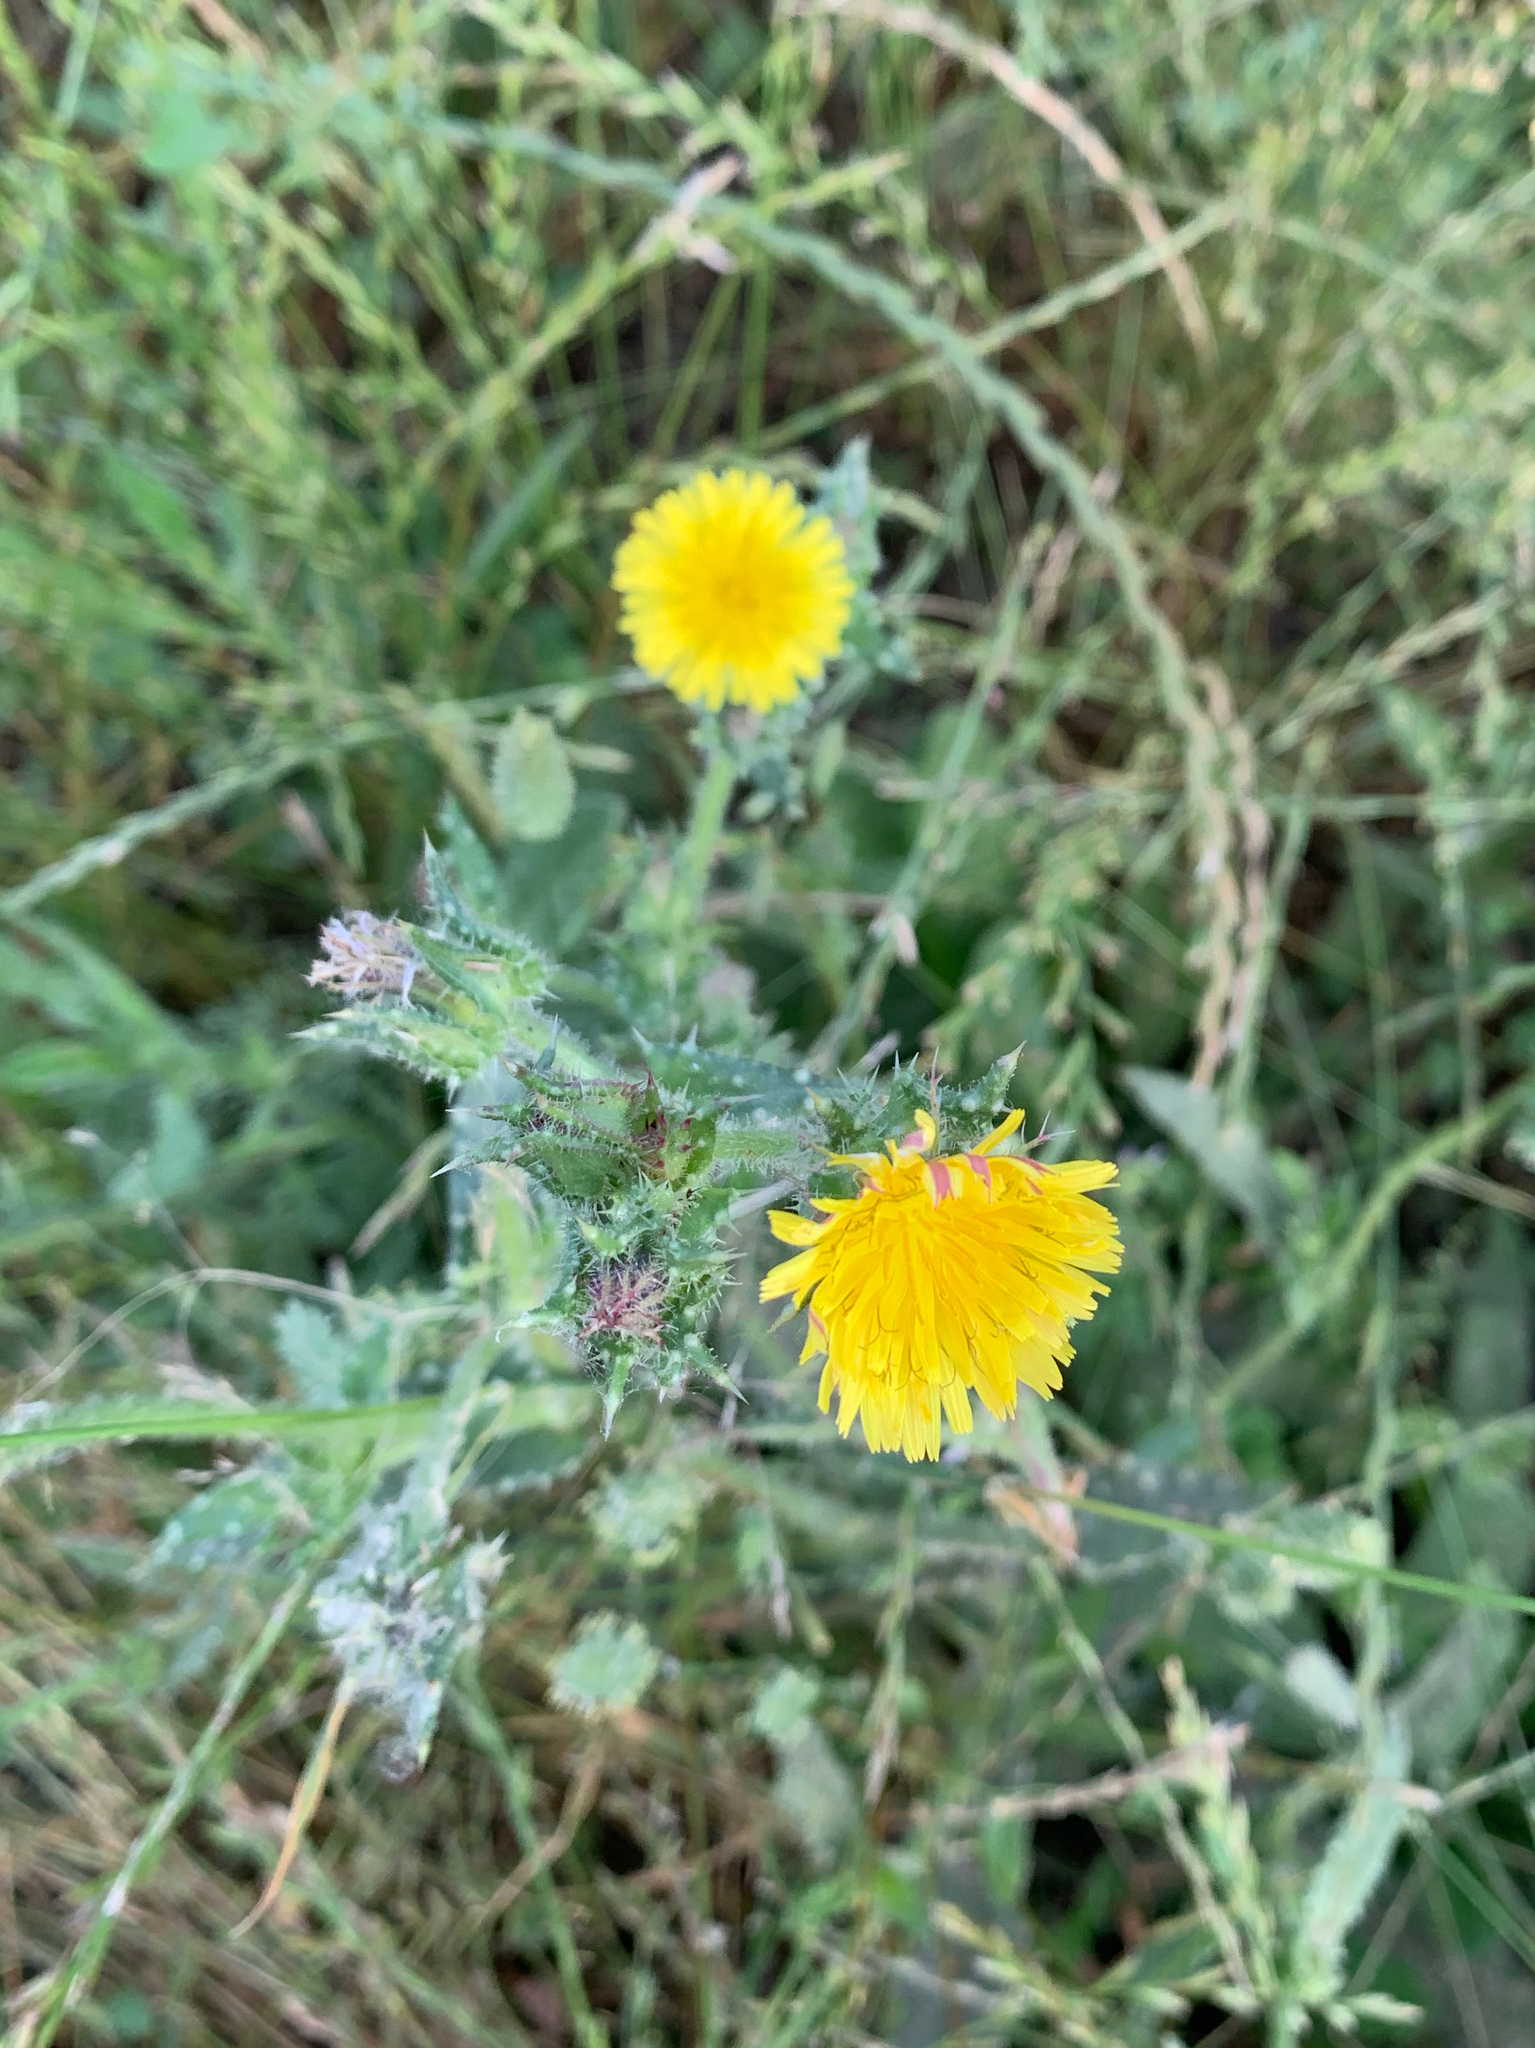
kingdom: Plantae
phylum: Tracheophyta
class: Magnoliopsida
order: Asterales
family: Asteraceae
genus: Helminthotheca
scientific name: Helminthotheca echioides
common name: Ox-tongue
